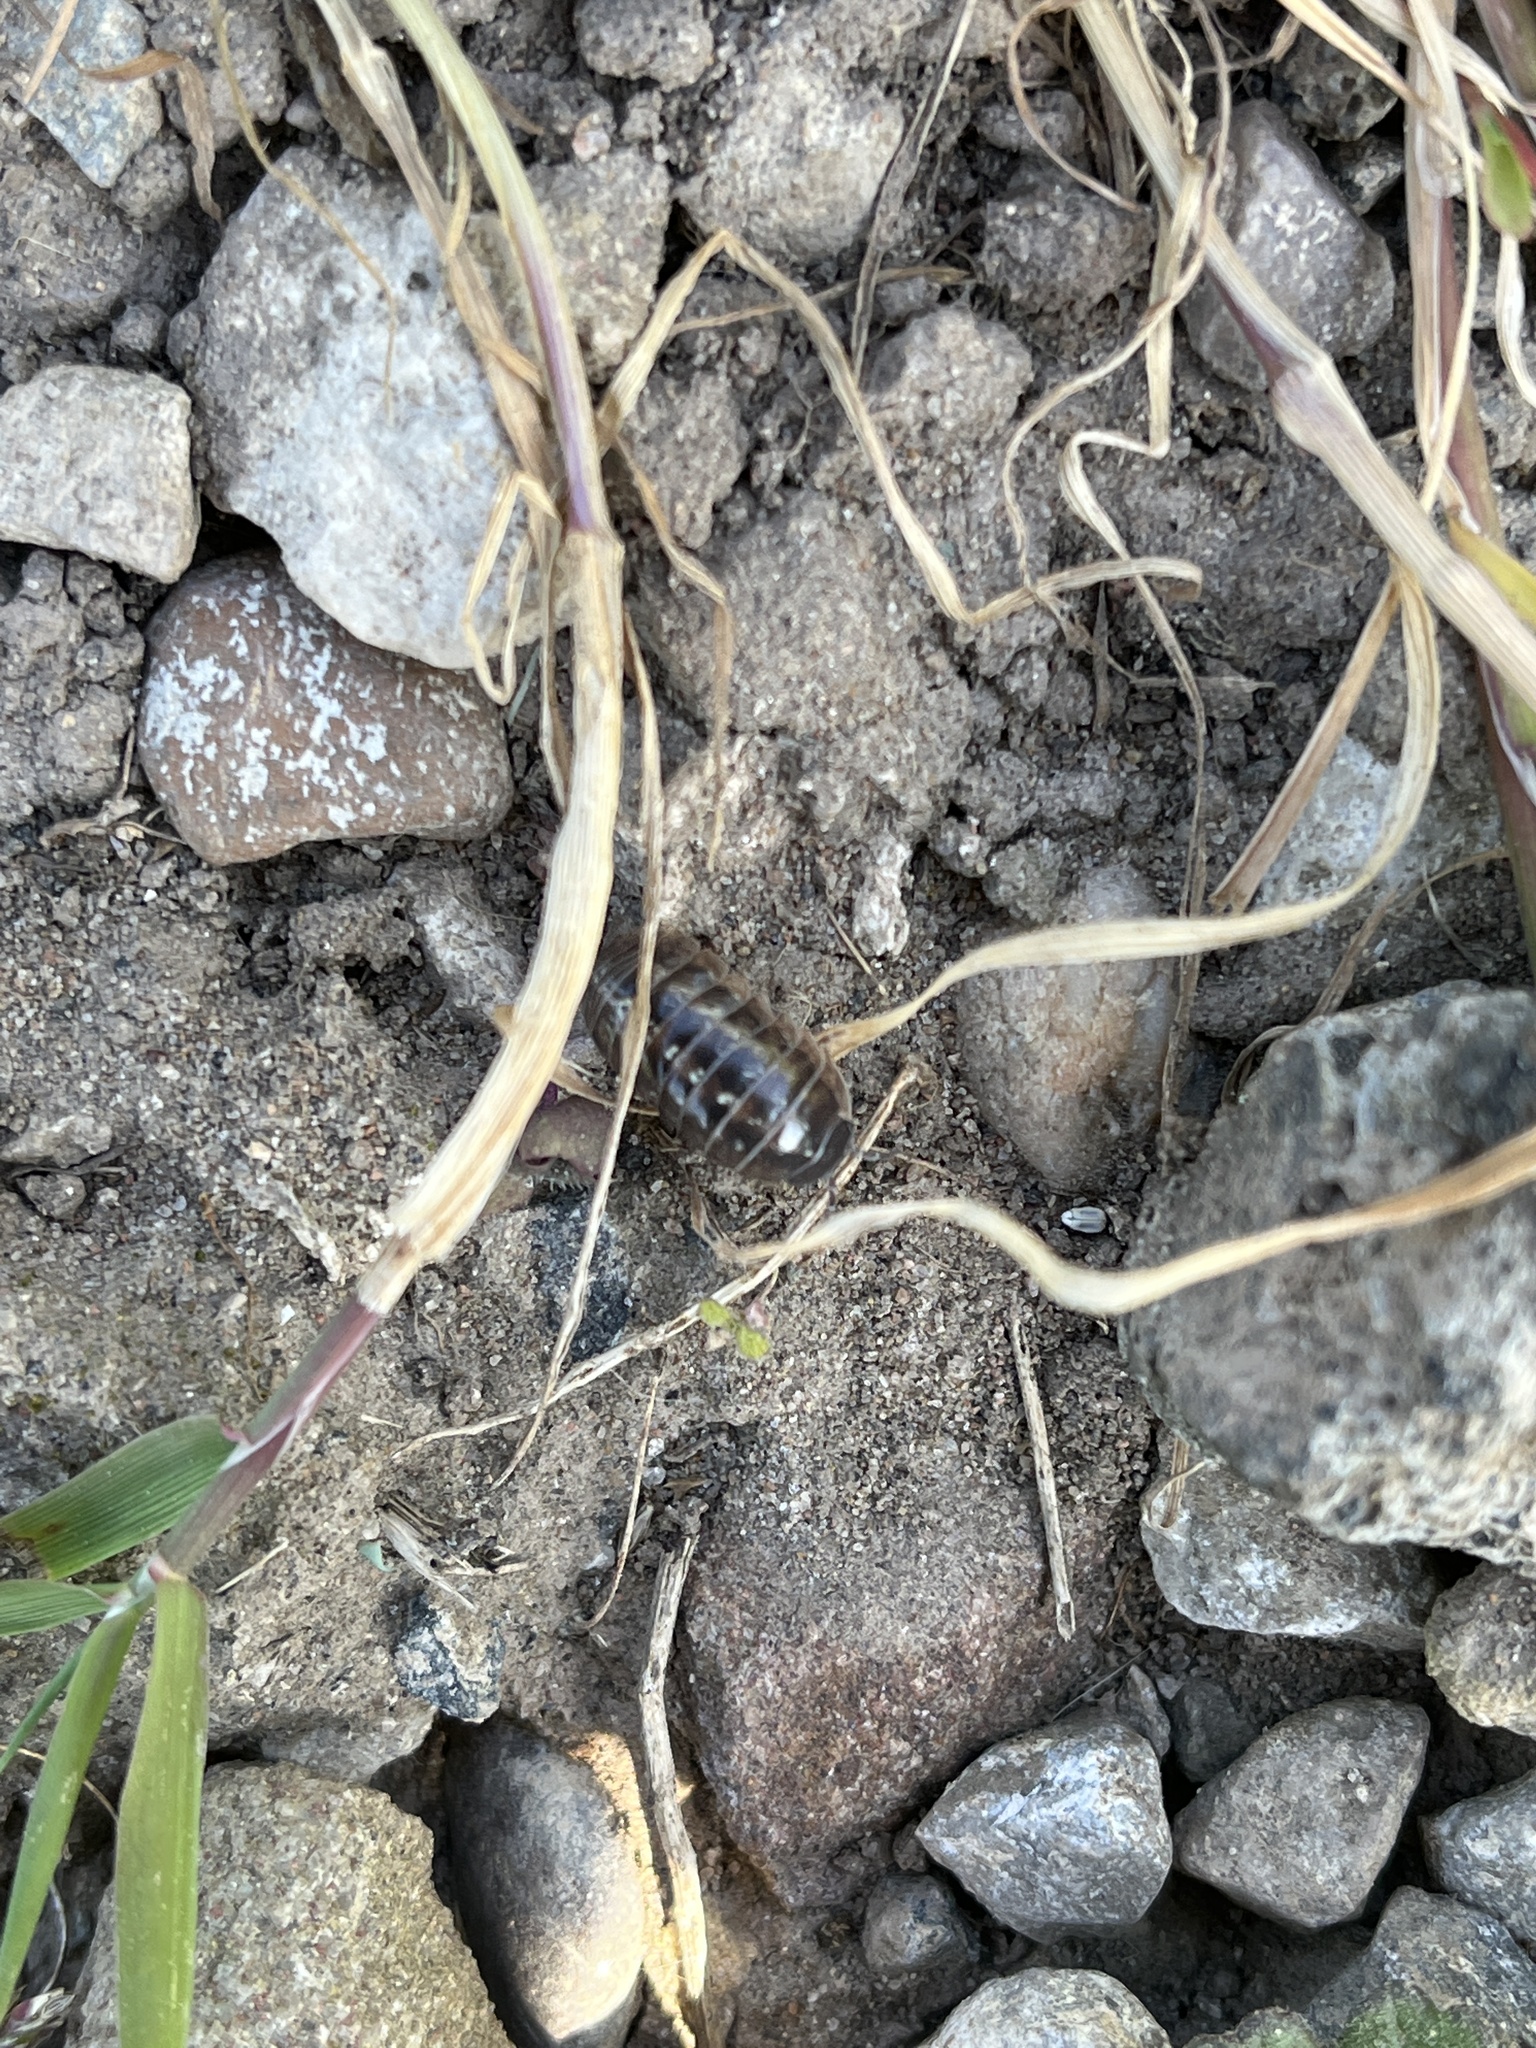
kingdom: Animalia
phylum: Arthropoda
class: Malacostraca
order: Isopoda
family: Armadillidiidae
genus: Armadillidium
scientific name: Armadillidium vulgare
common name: Common pill woodlouse
